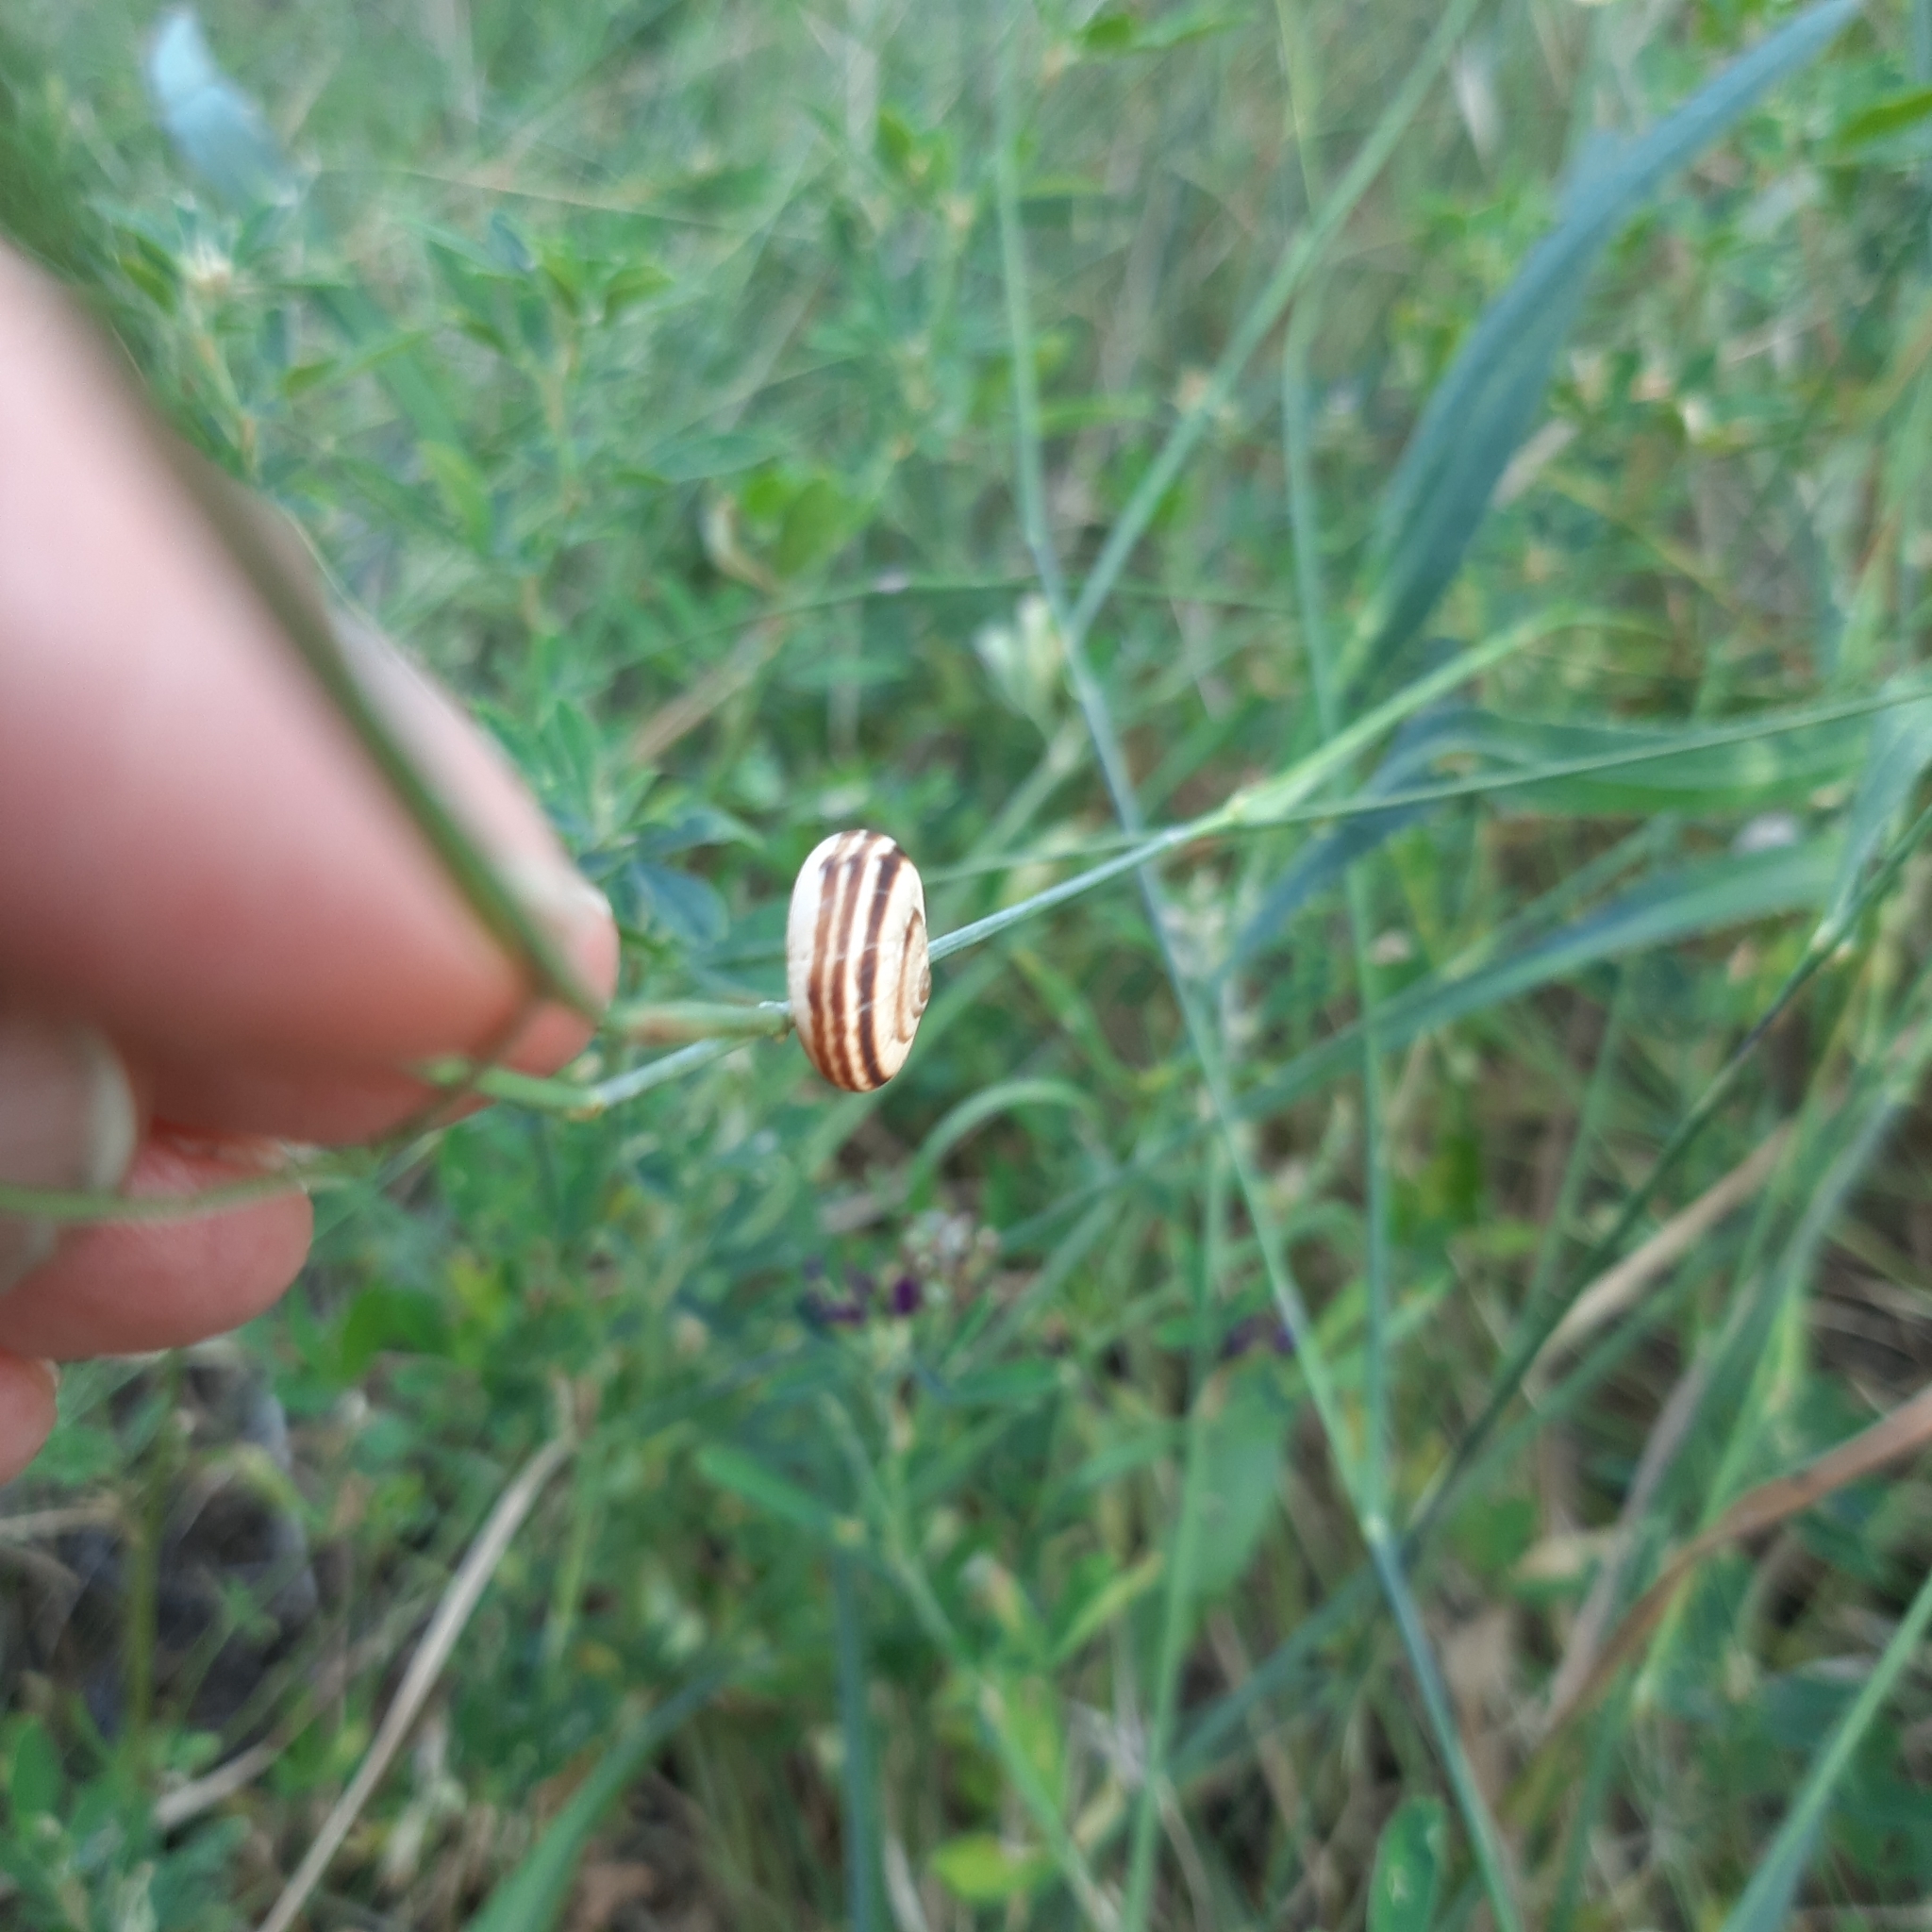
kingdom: Animalia
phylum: Mollusca
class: Gastropoda
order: Stylommatophora
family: Geomitridae
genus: Xerolenta
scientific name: Xerolenta obvia
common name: White heath snail
